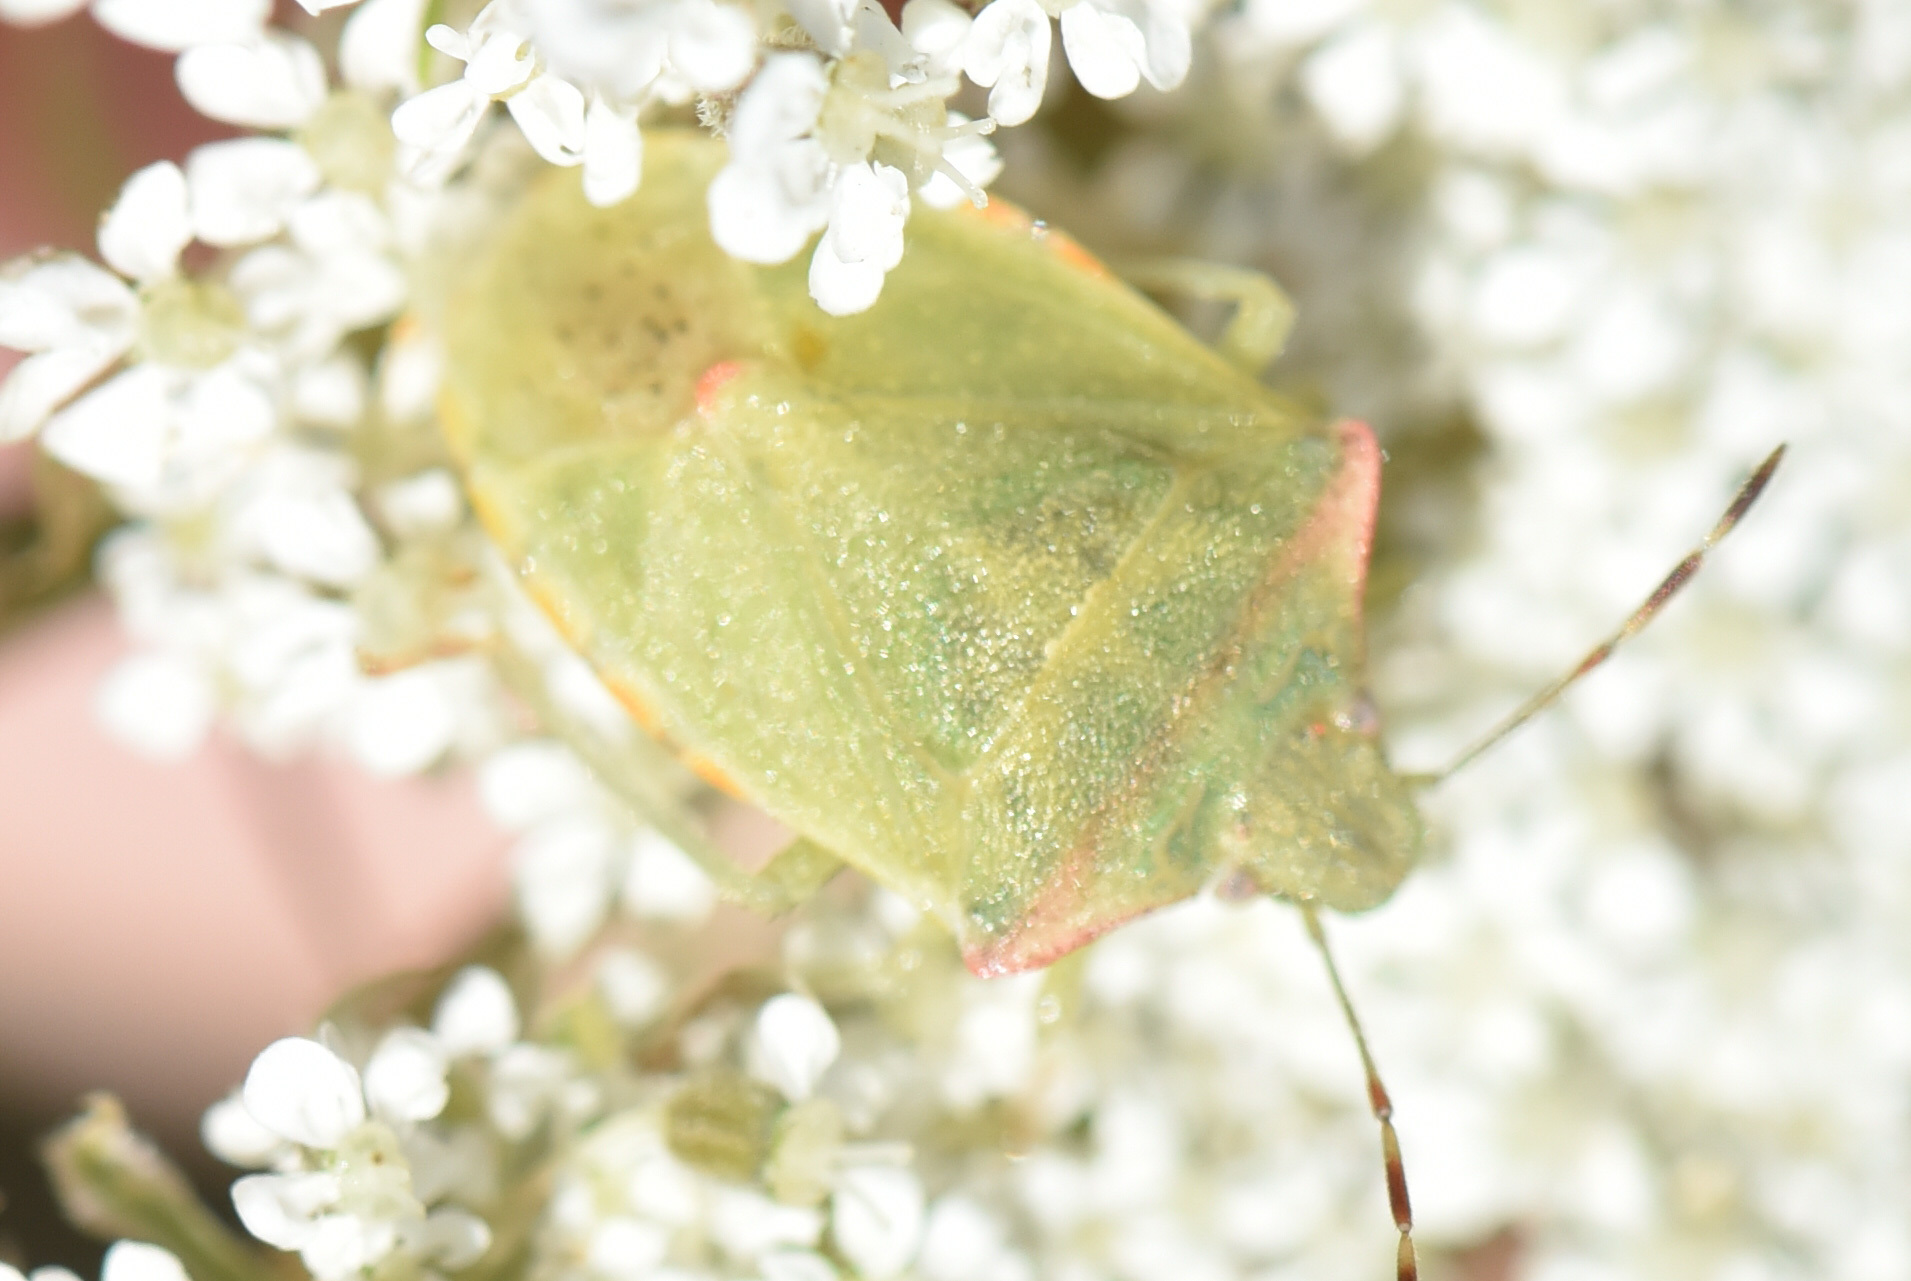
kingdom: Animalia
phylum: Arthropoda
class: Insecta
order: Hemiptera
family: Pentatomidae
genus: Thyanta
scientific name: Thyanta pallidovirens
